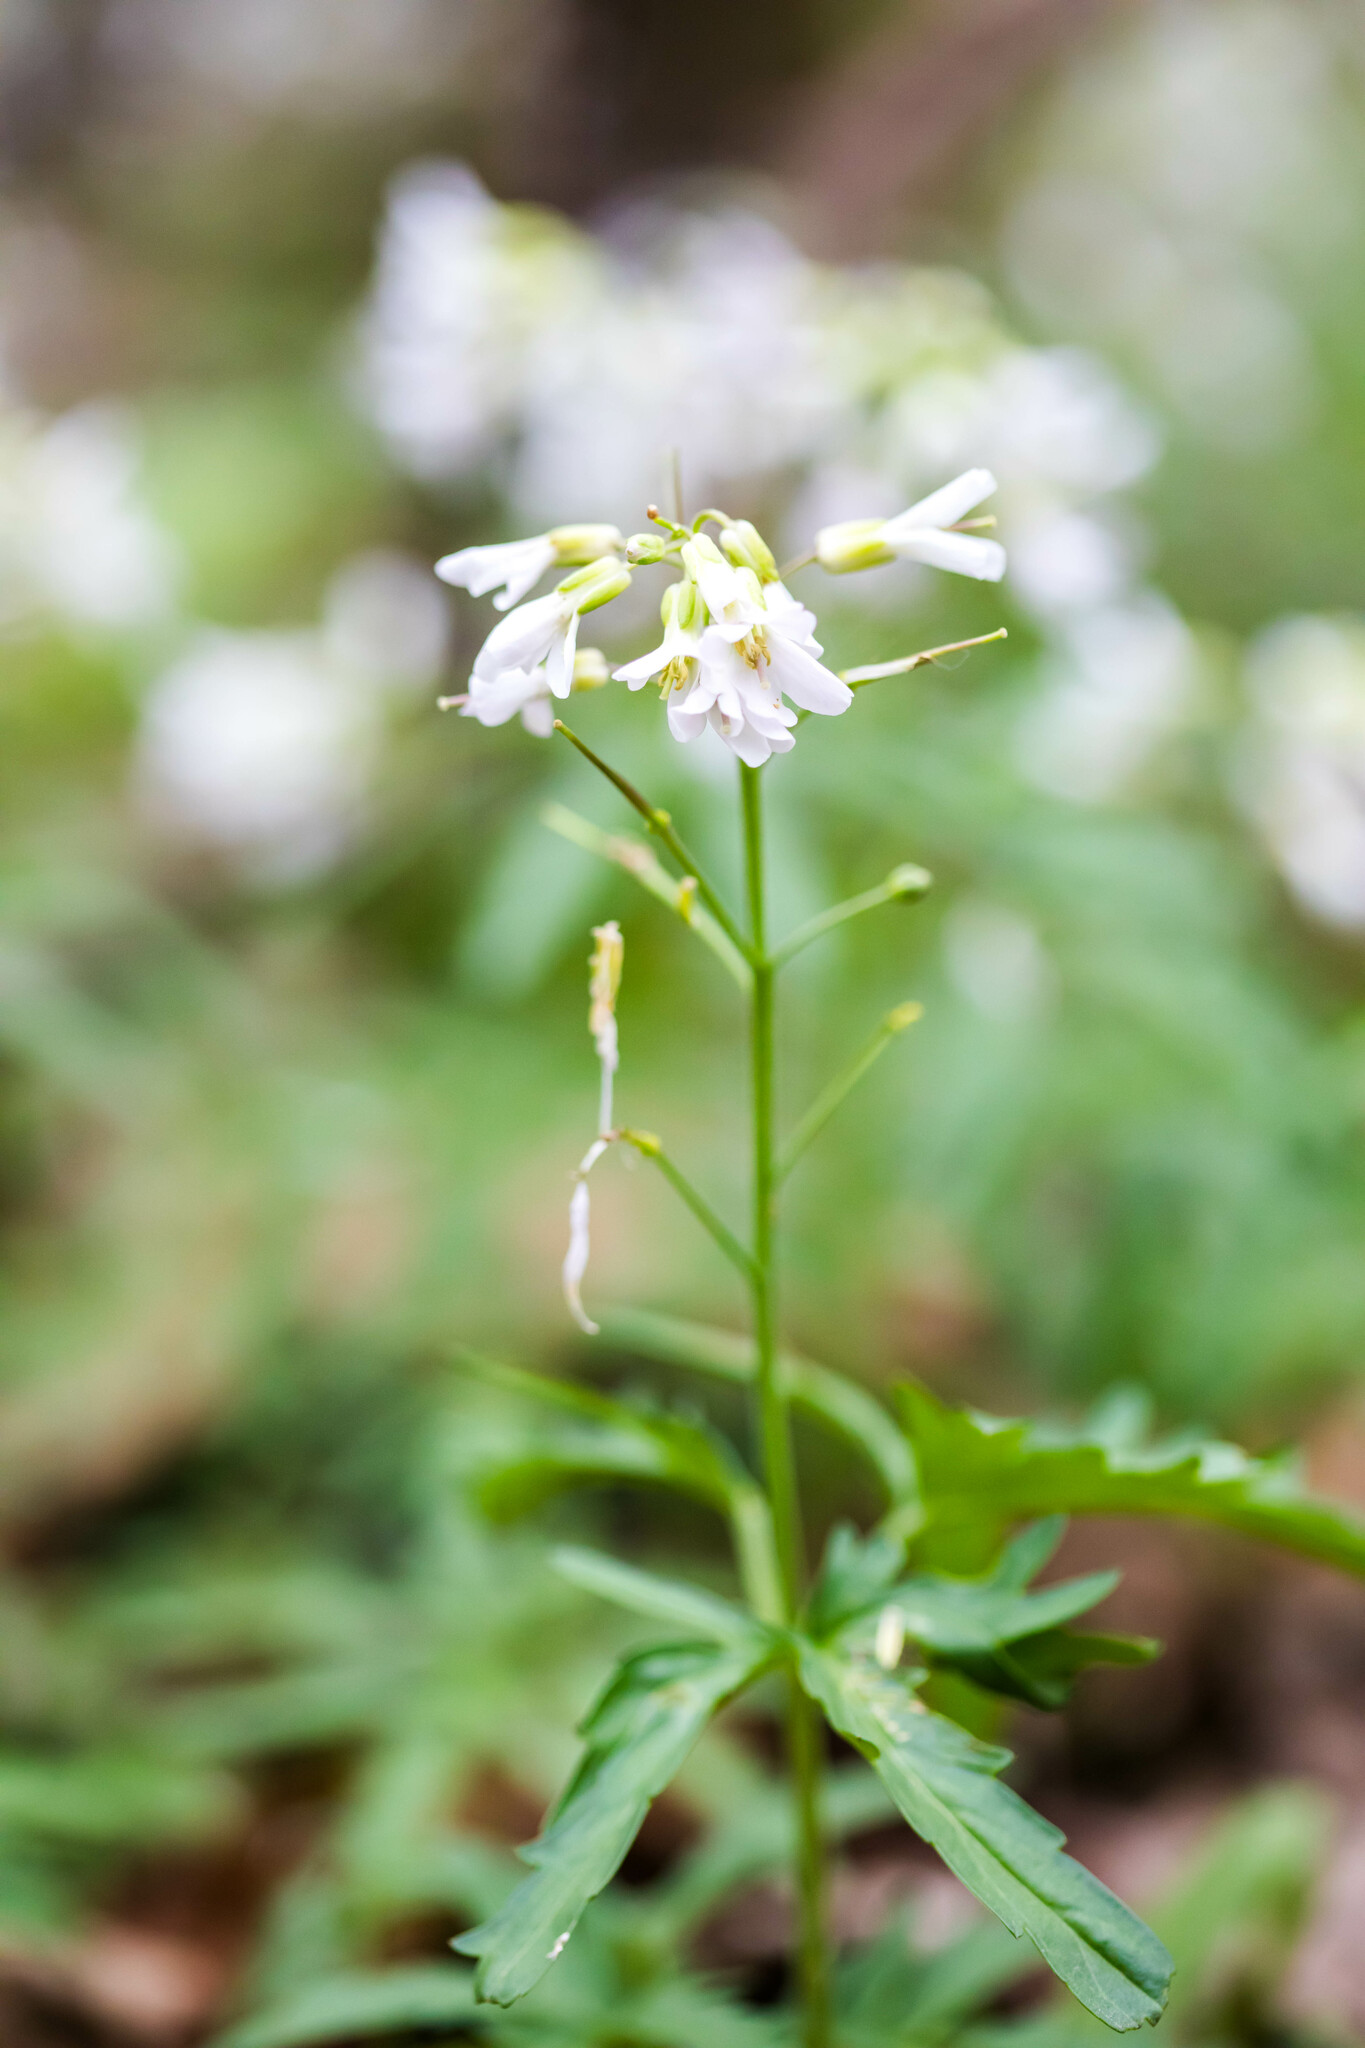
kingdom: Plantae
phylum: Tracheophyta
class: Magnoliopsida
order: Brassicales
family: Brassicaceae
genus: Cardamine
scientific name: Cardamine concatenata
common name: Cut-leaf toothcup
